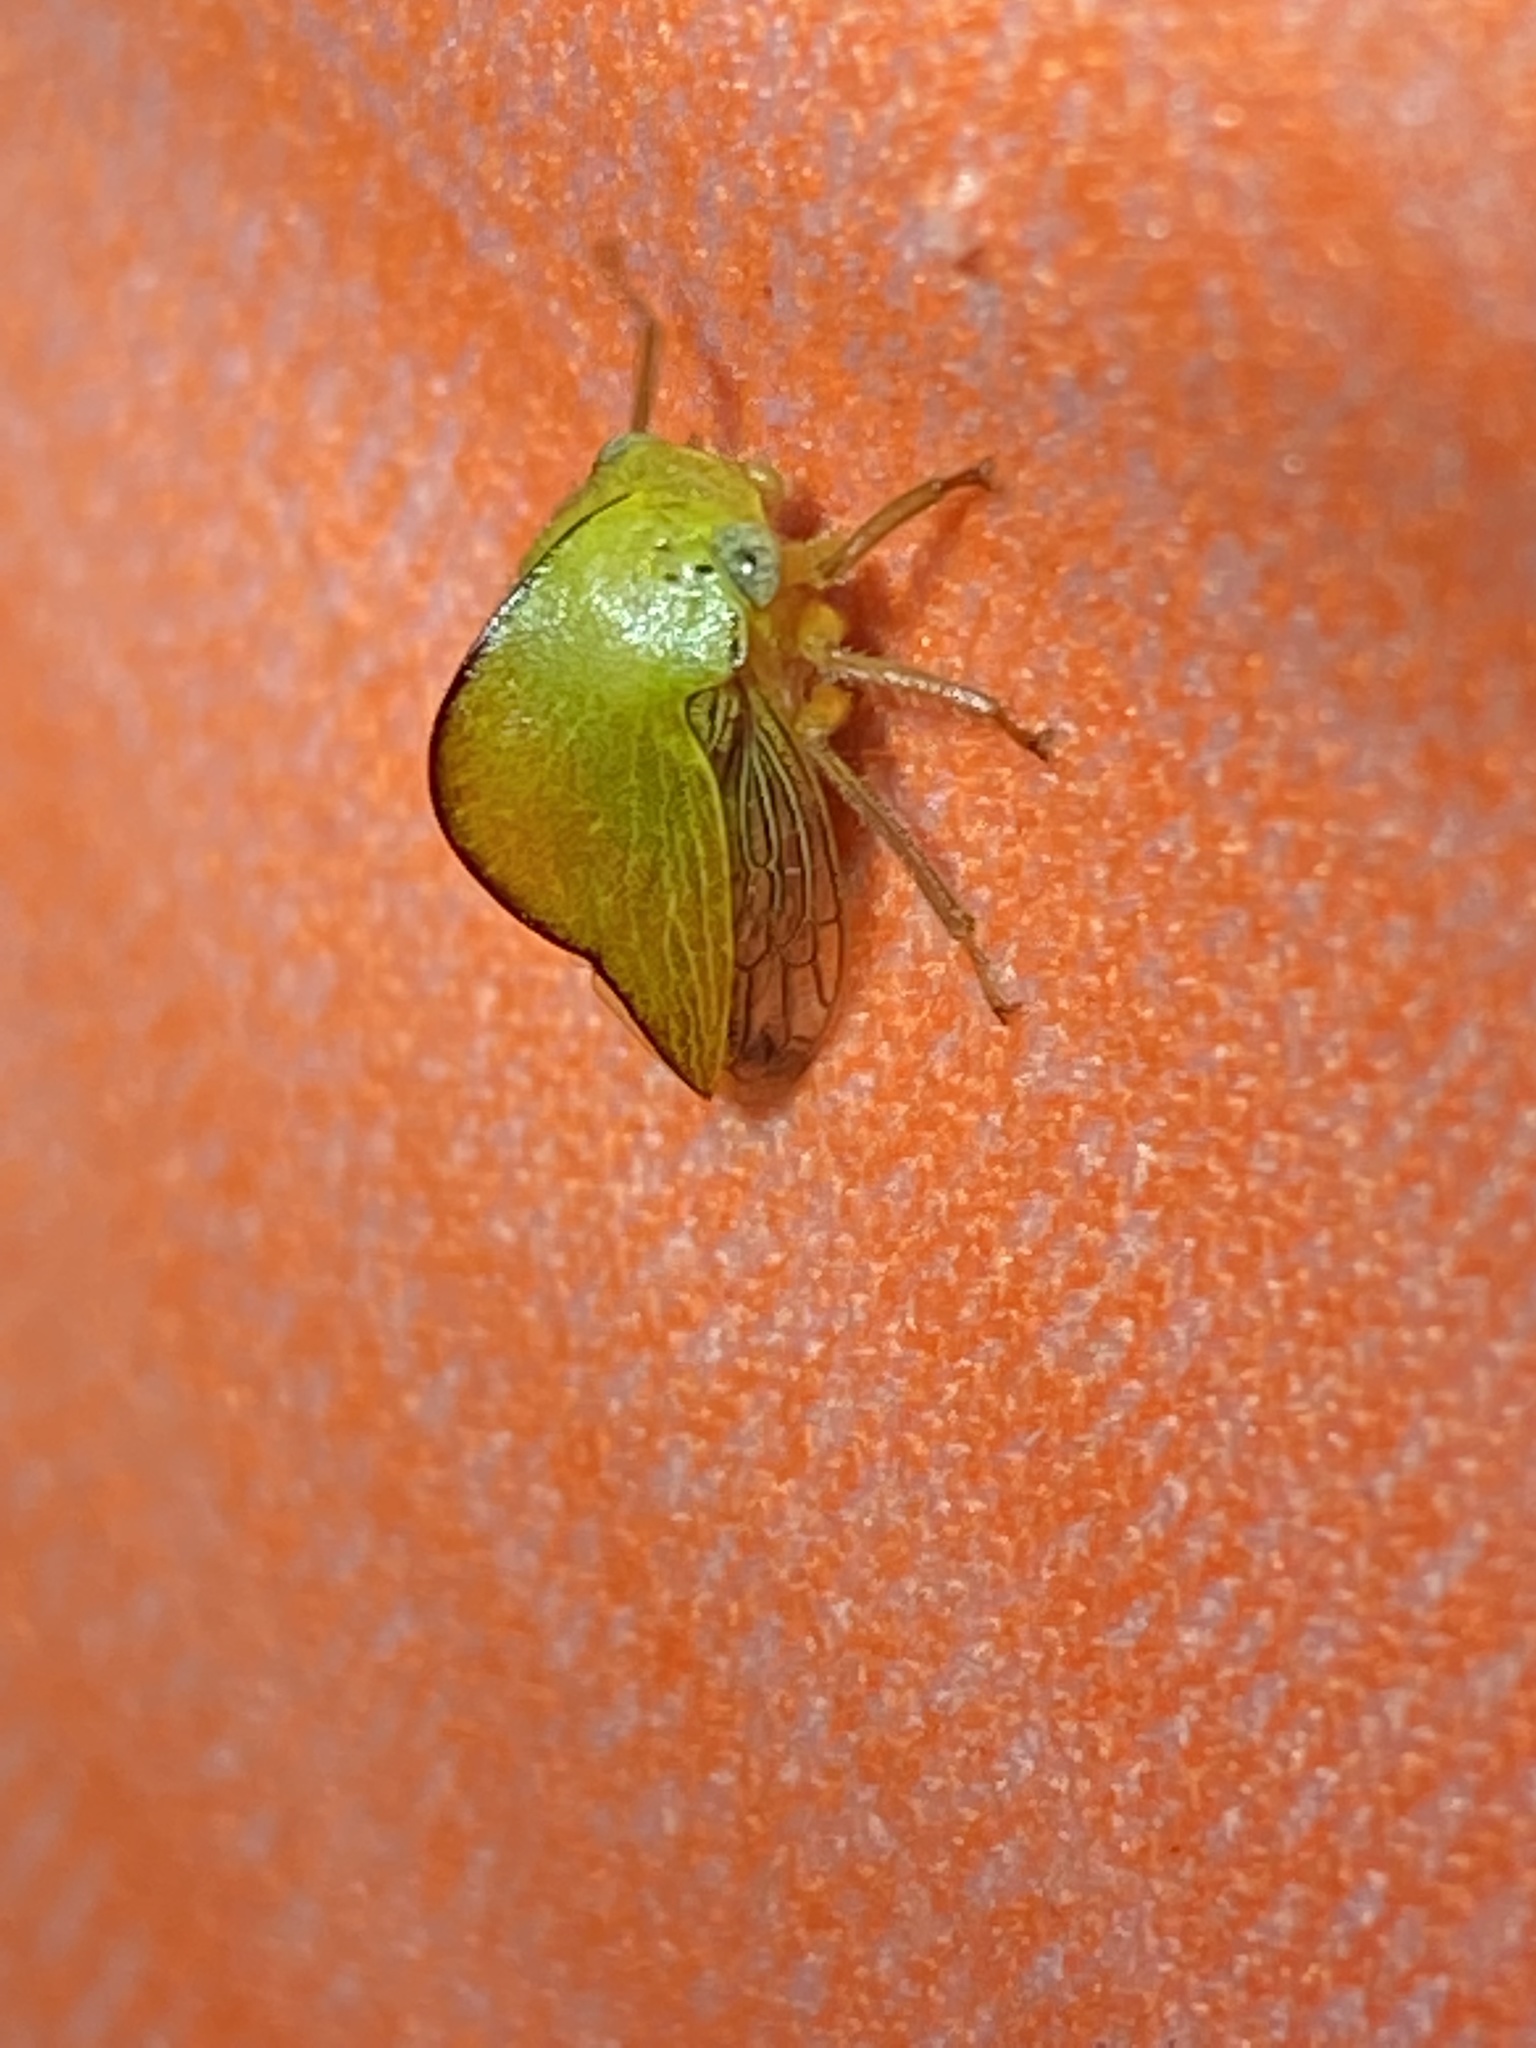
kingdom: Animalia
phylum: Arthropoda
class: Insecta
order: Hemiptera
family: Membracidae
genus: Archasia
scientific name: Archasia pallida
